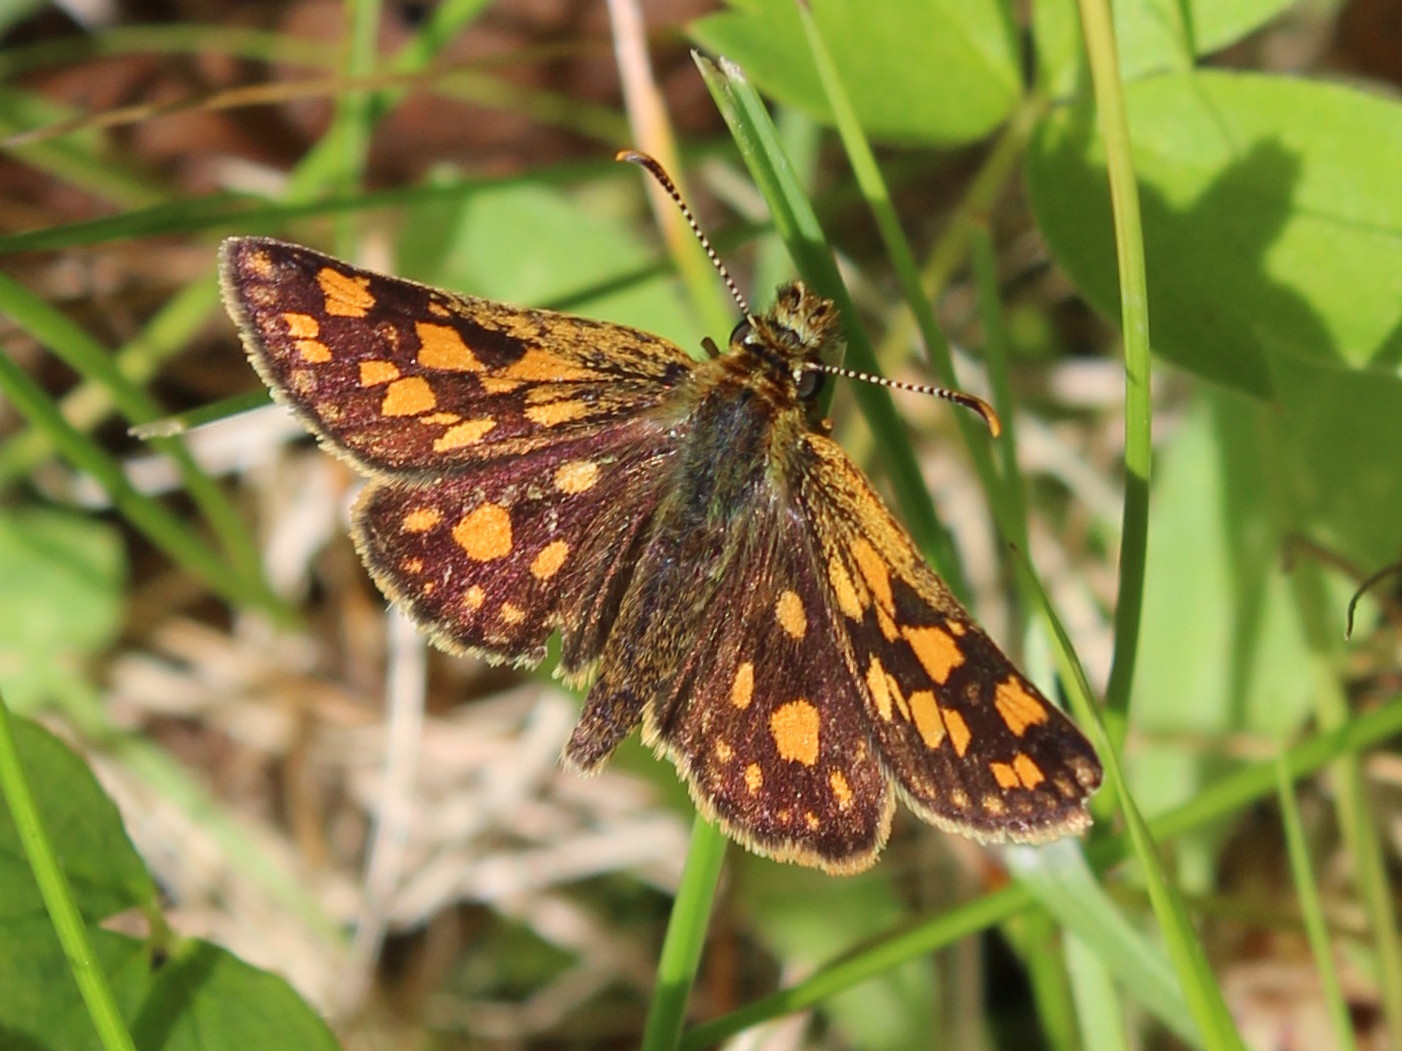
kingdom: Animalia
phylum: Arthropoda
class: Insecta
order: Lepidoptera
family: Hesperiidae
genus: Carterocephalus
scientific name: Carterocephalus mandan
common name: Arctic skipperling
